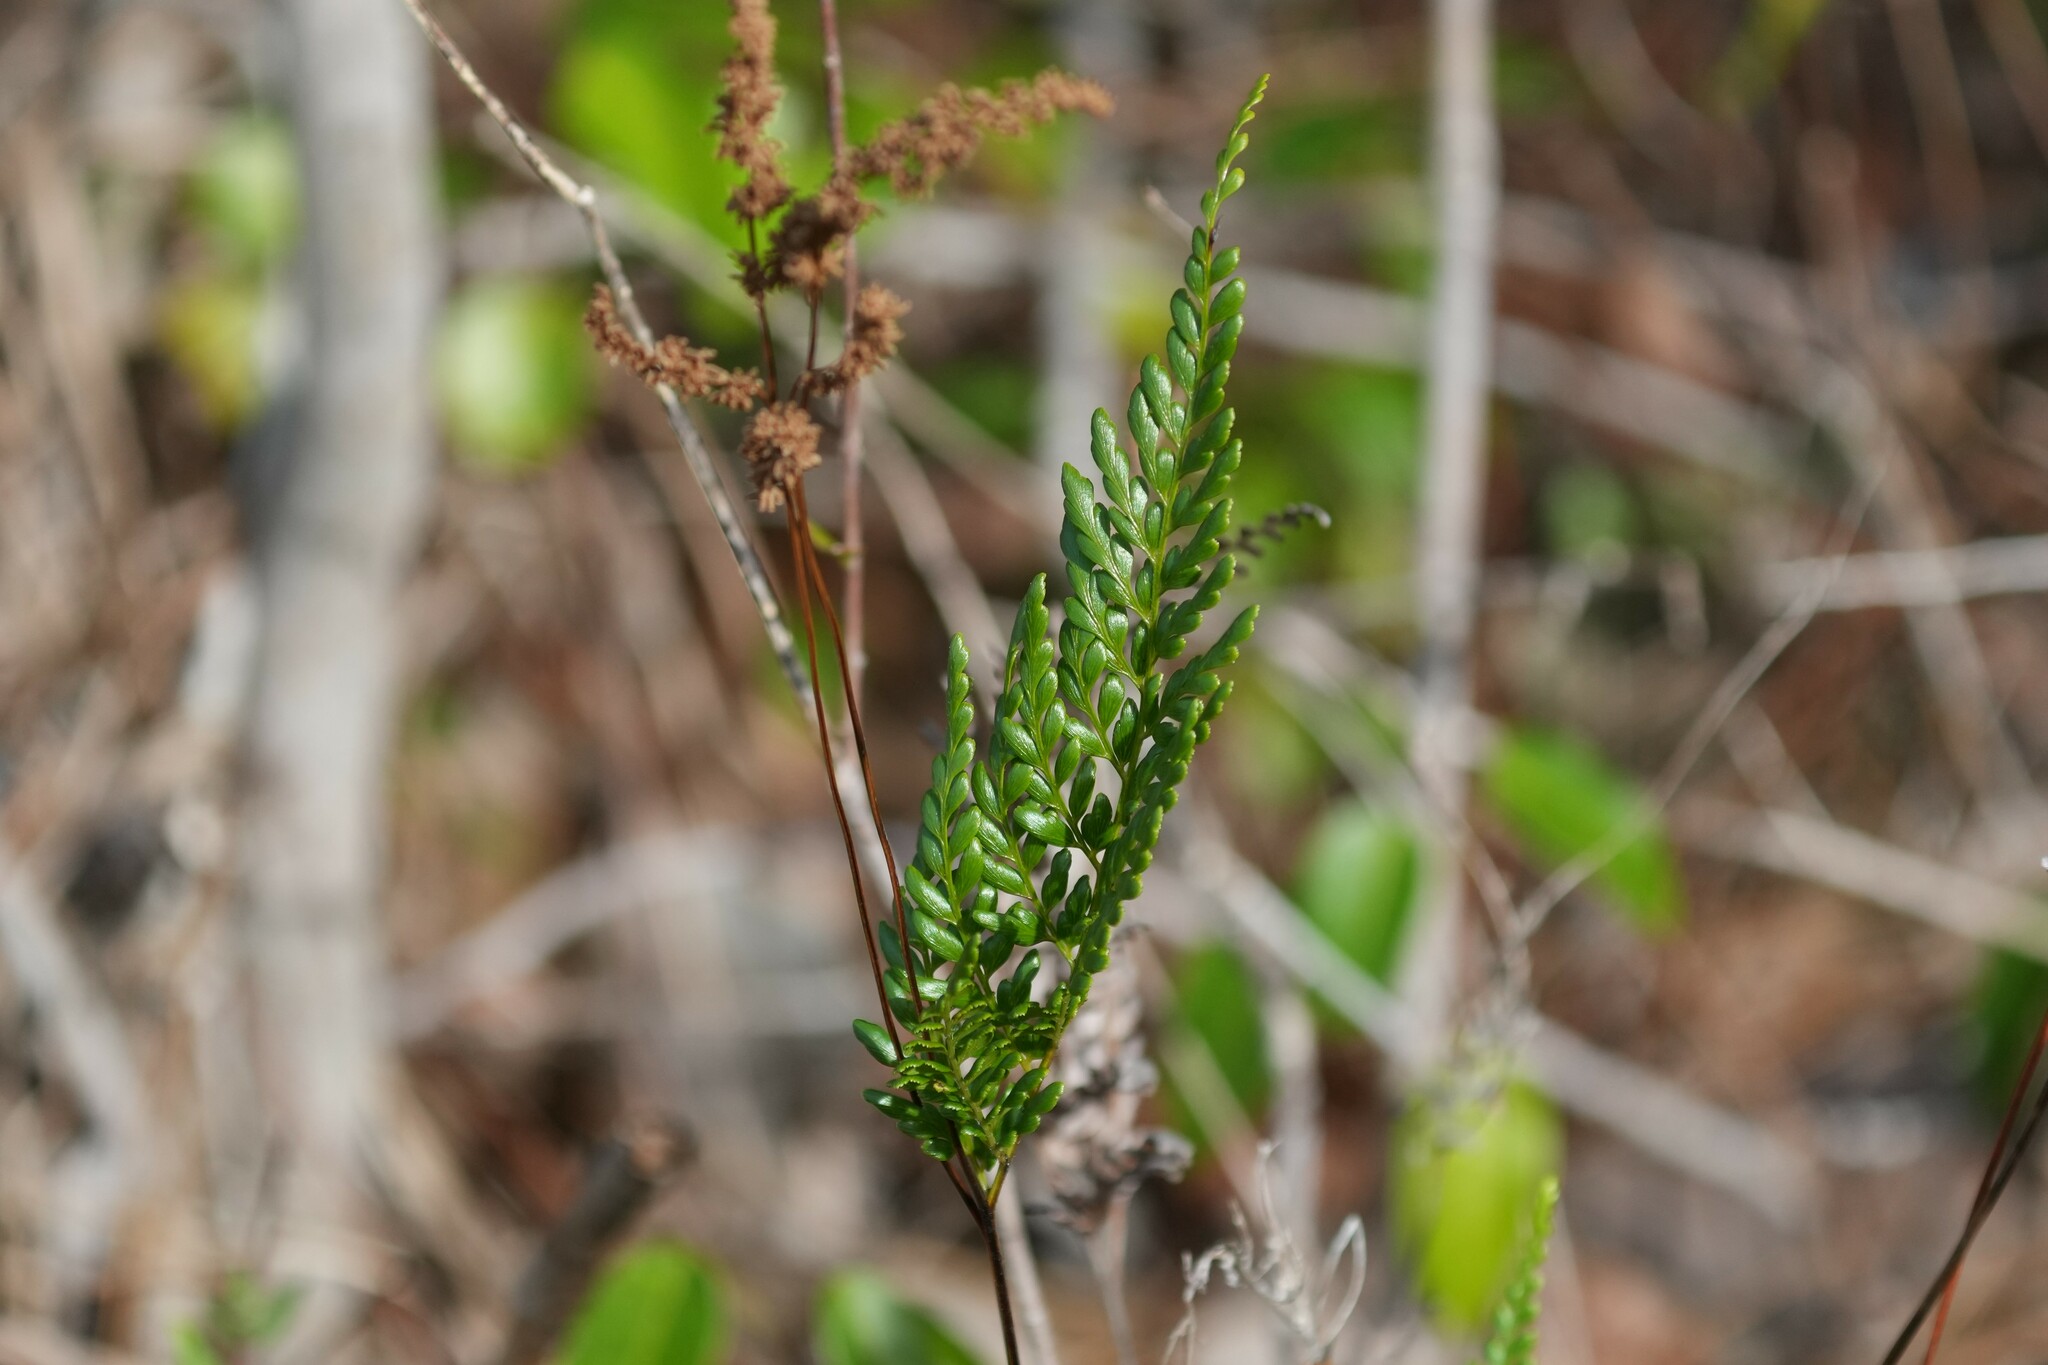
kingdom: Plantae
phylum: Tracheophyta
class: Polypodiopsida
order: Schizaeales
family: Anemiaceae
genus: Anemia
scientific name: Anemia adiantifolia
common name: Pine fern
